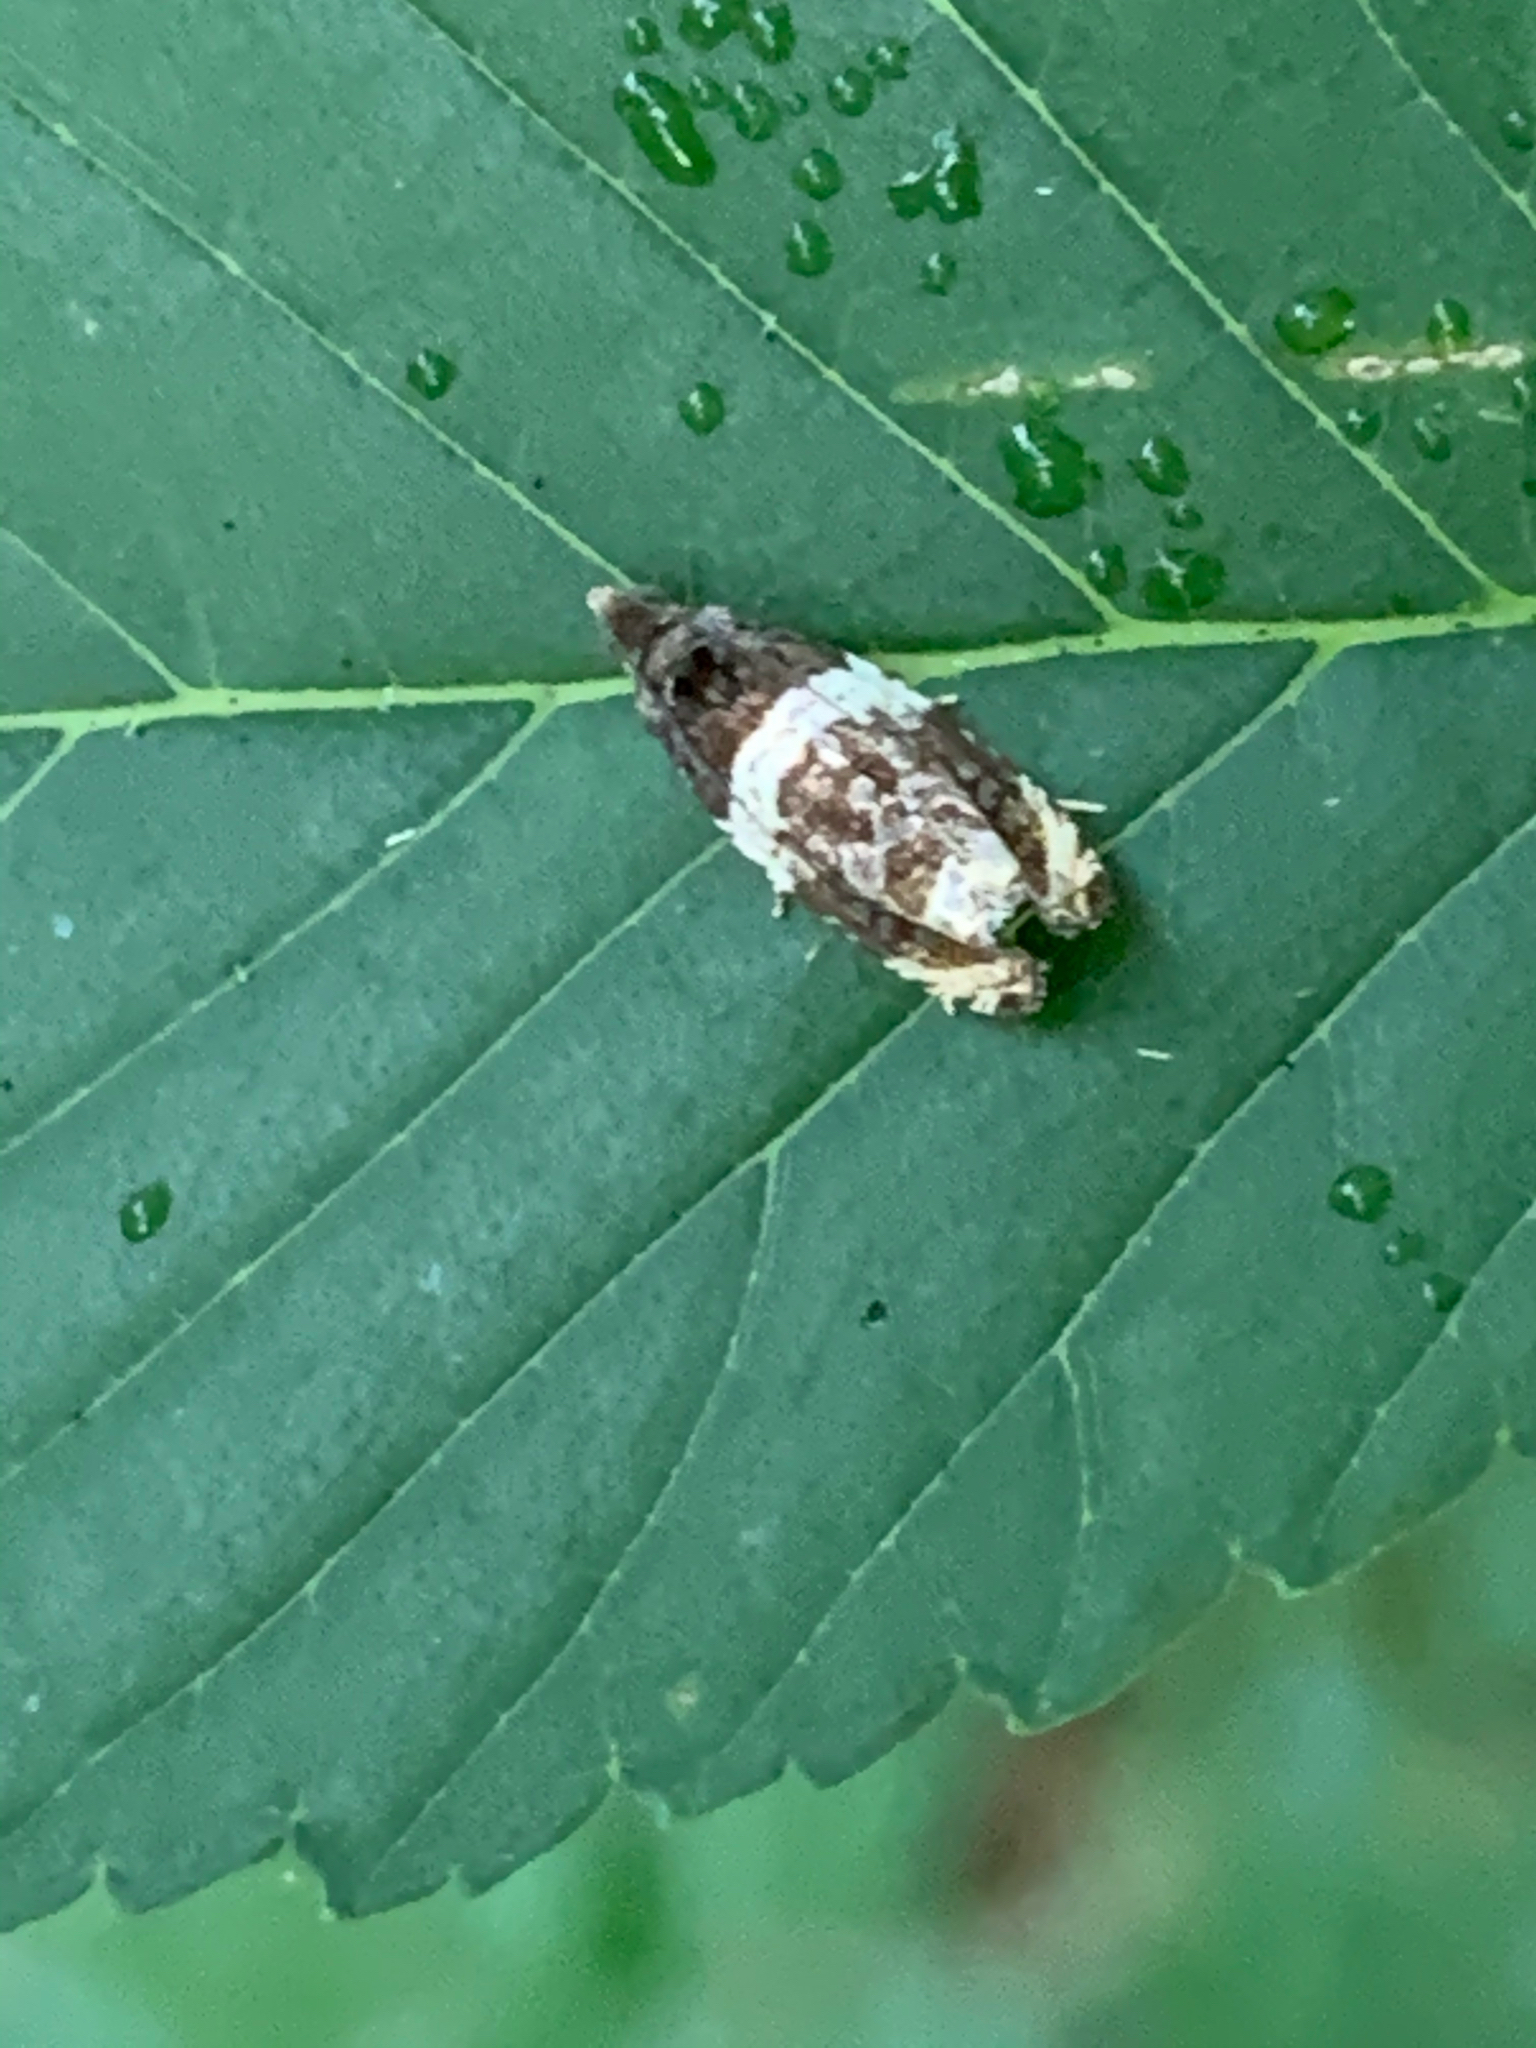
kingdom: Animalia
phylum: Arthropoda
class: Insecta
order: Lepidoptera
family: Tortricidae
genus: Olethreutes
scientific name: Olethreutes fasciatana
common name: Banded olethreutes moth
